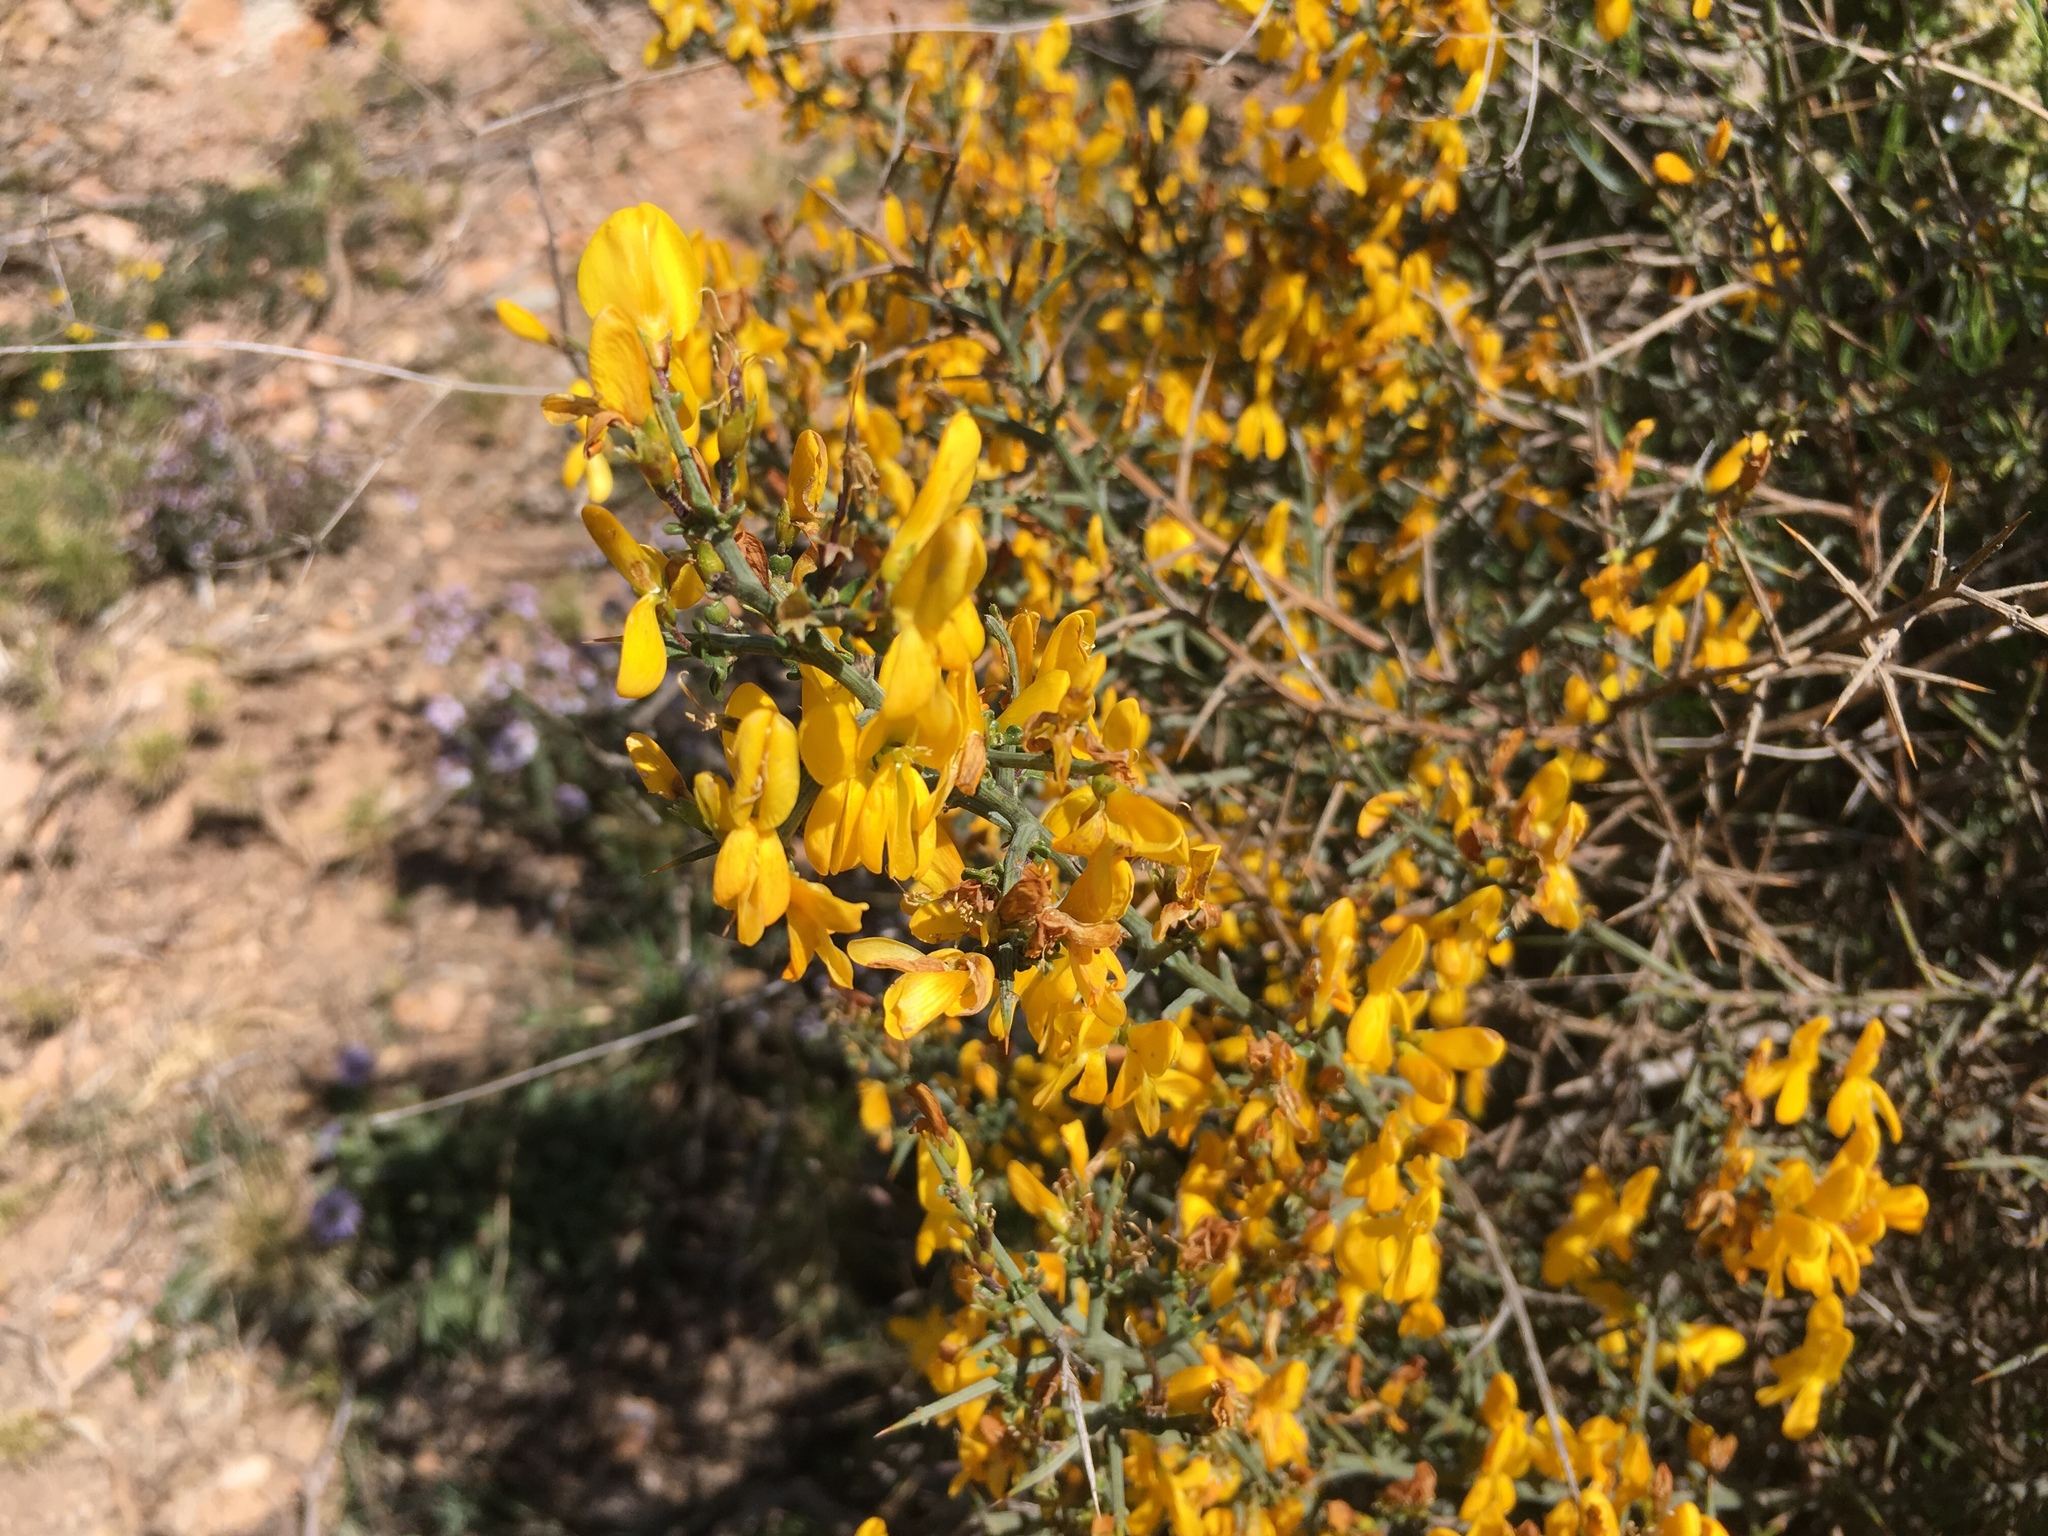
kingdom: Plantae
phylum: Tracheophyta
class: Magnoliopsida
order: Fabales
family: Fabaceae
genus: Genista
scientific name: Genista scorpius
